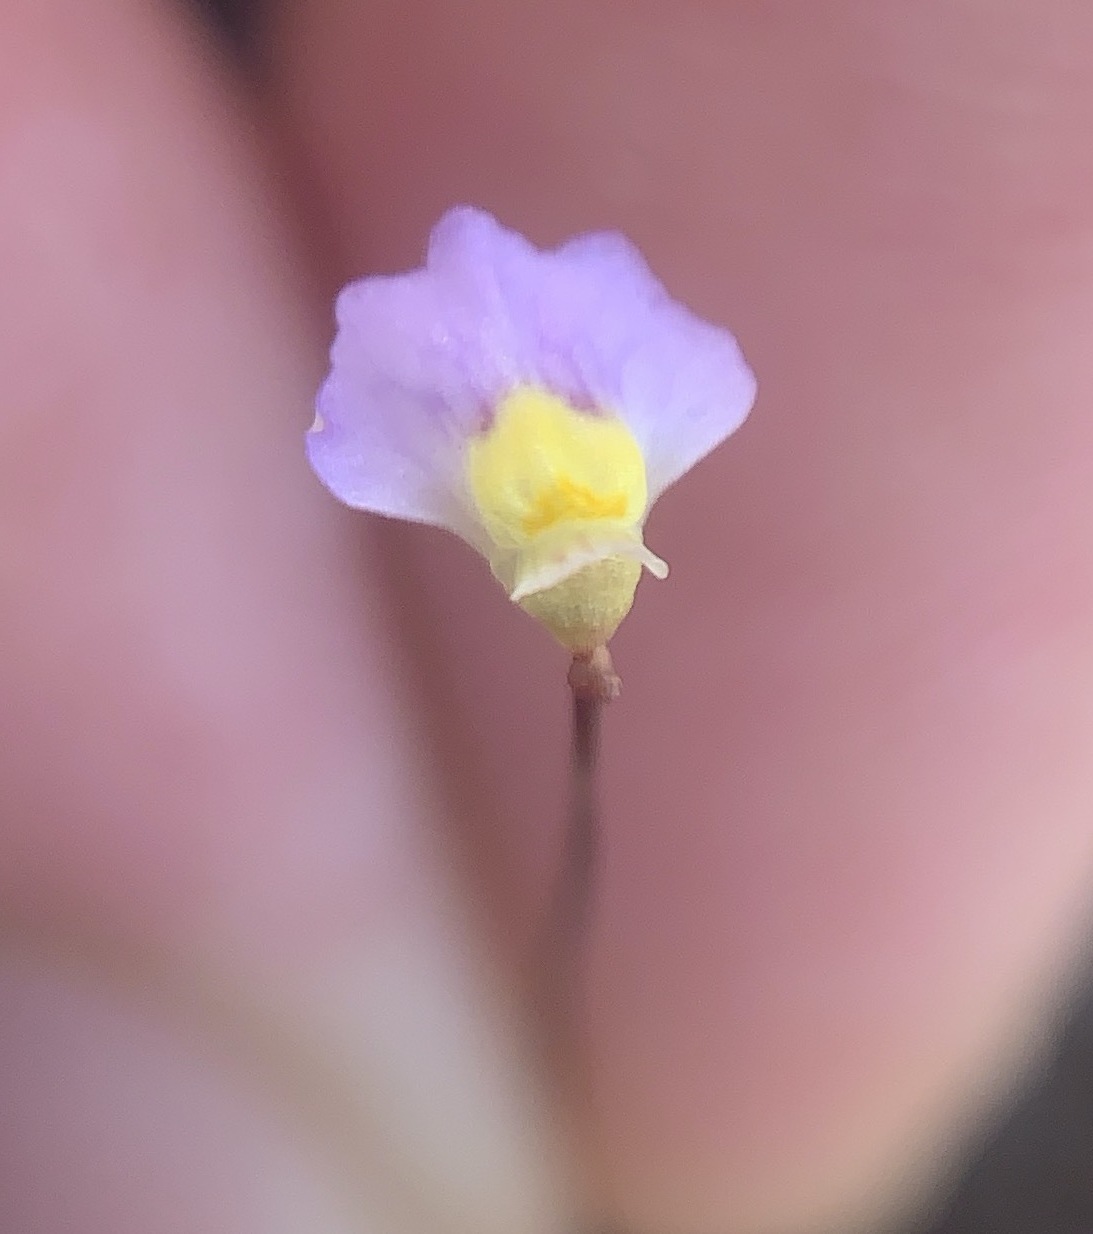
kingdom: Plantae
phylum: Tracheophyta
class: Magnoliopsida
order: Lamiales
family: Lentibulariaceae
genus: Utricularia
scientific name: Utricularia bisquamata
